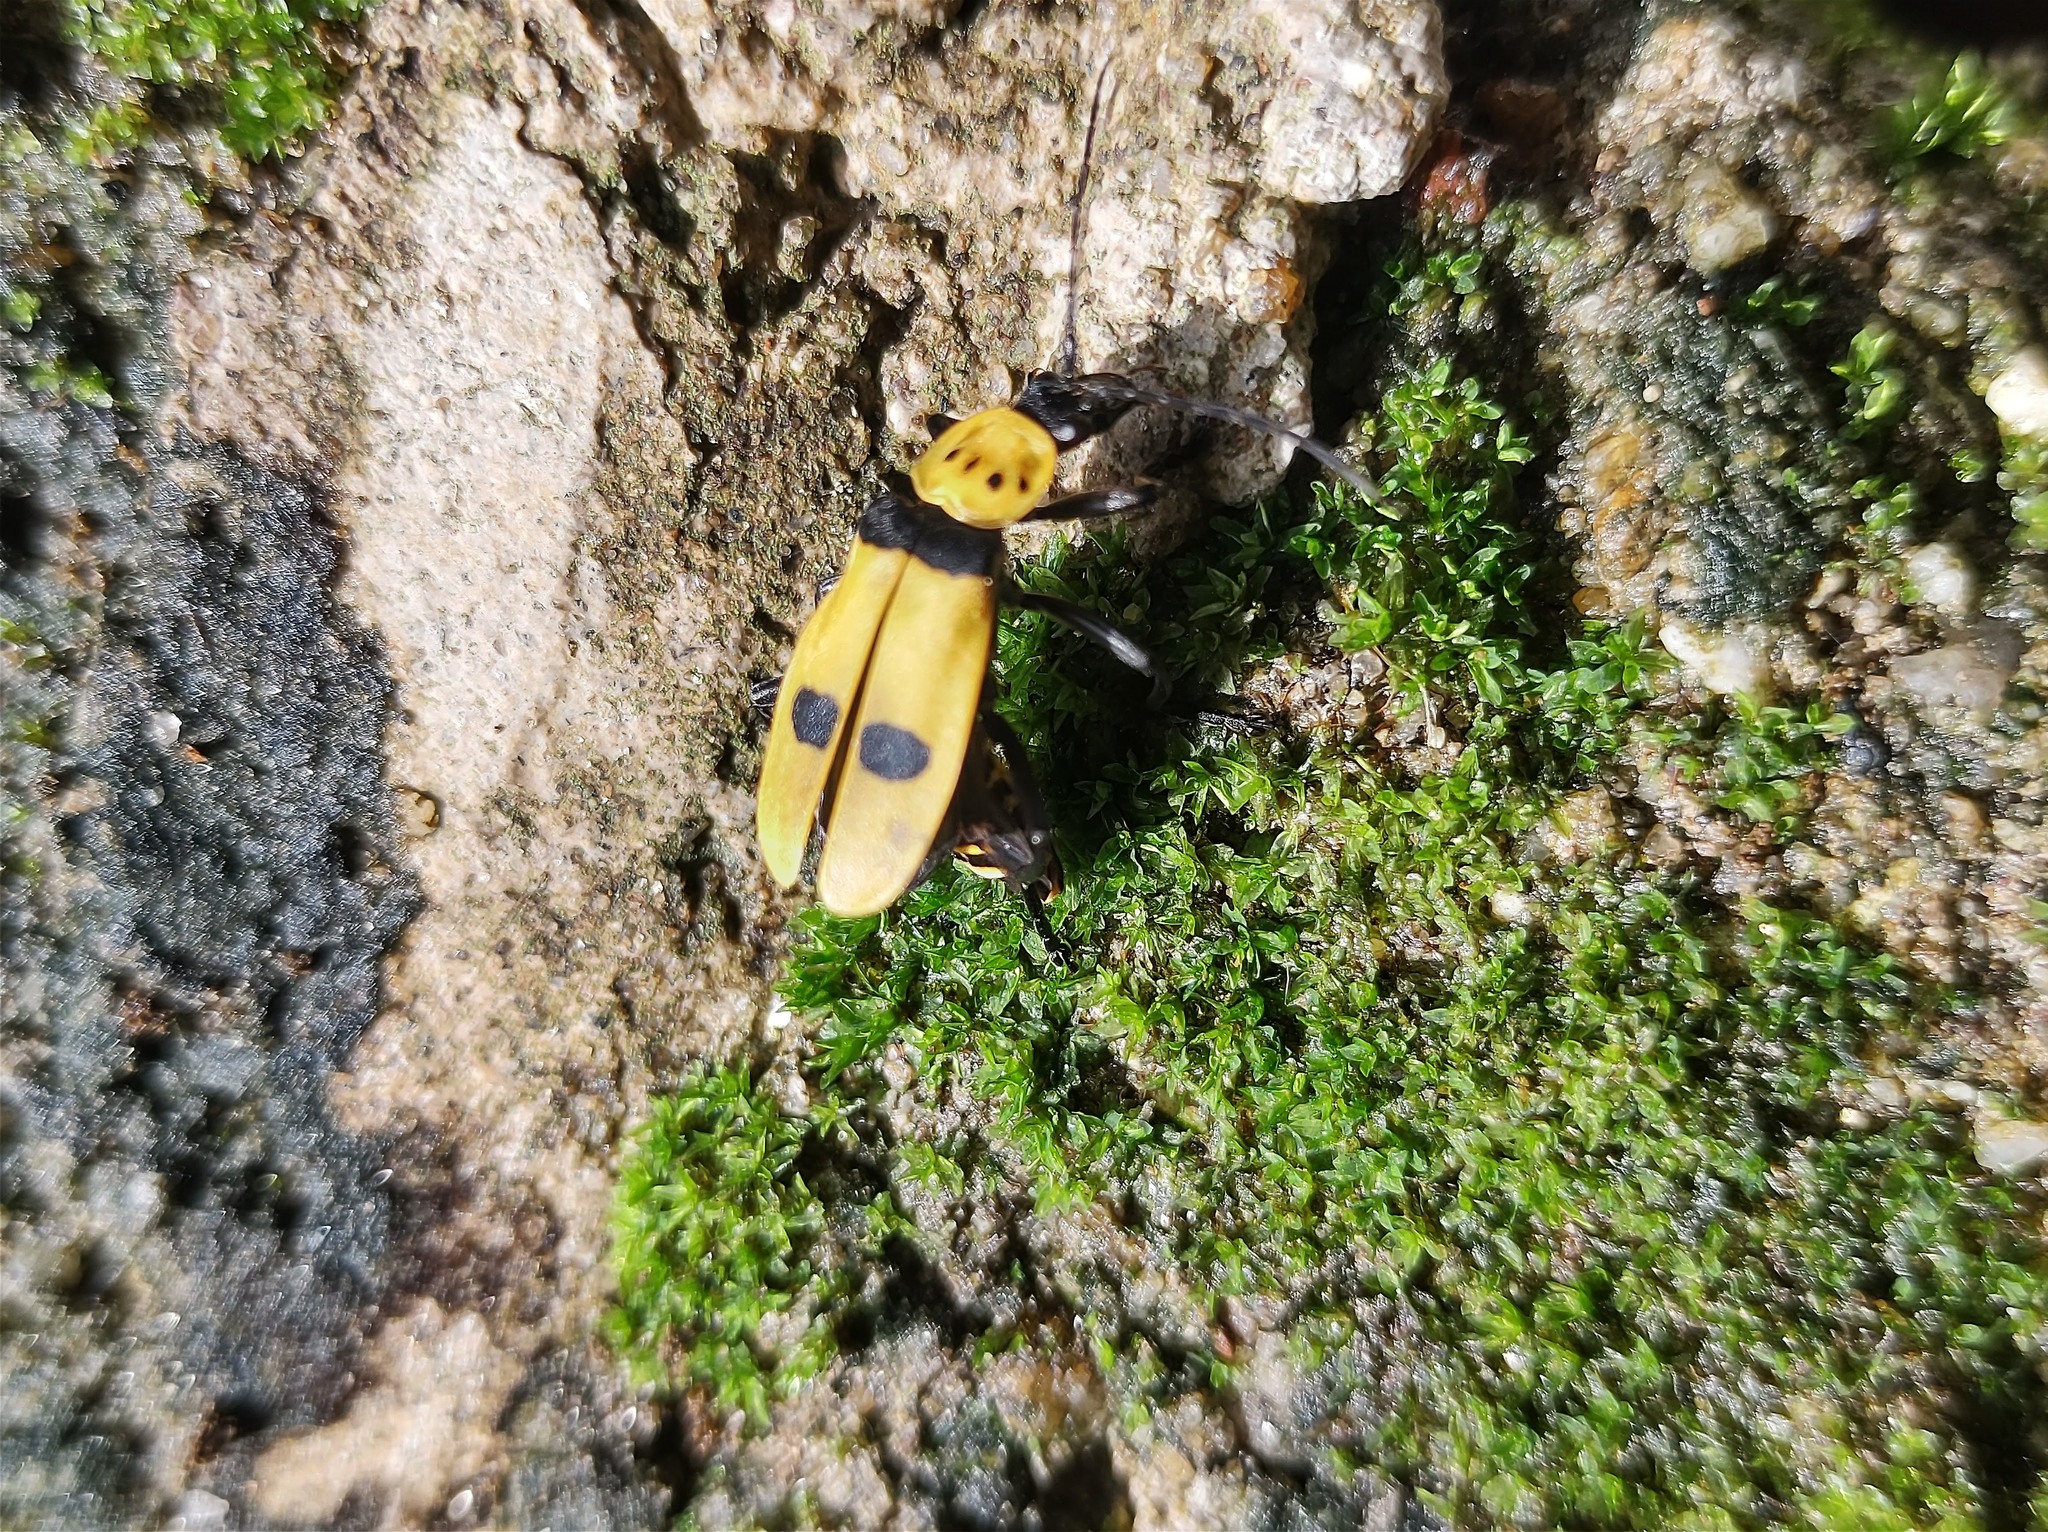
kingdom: Animalia
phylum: Arthropoda
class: Insecta
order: Coleoptera
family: Cantharidae
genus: Chauliognathus
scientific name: Chauliognathus
